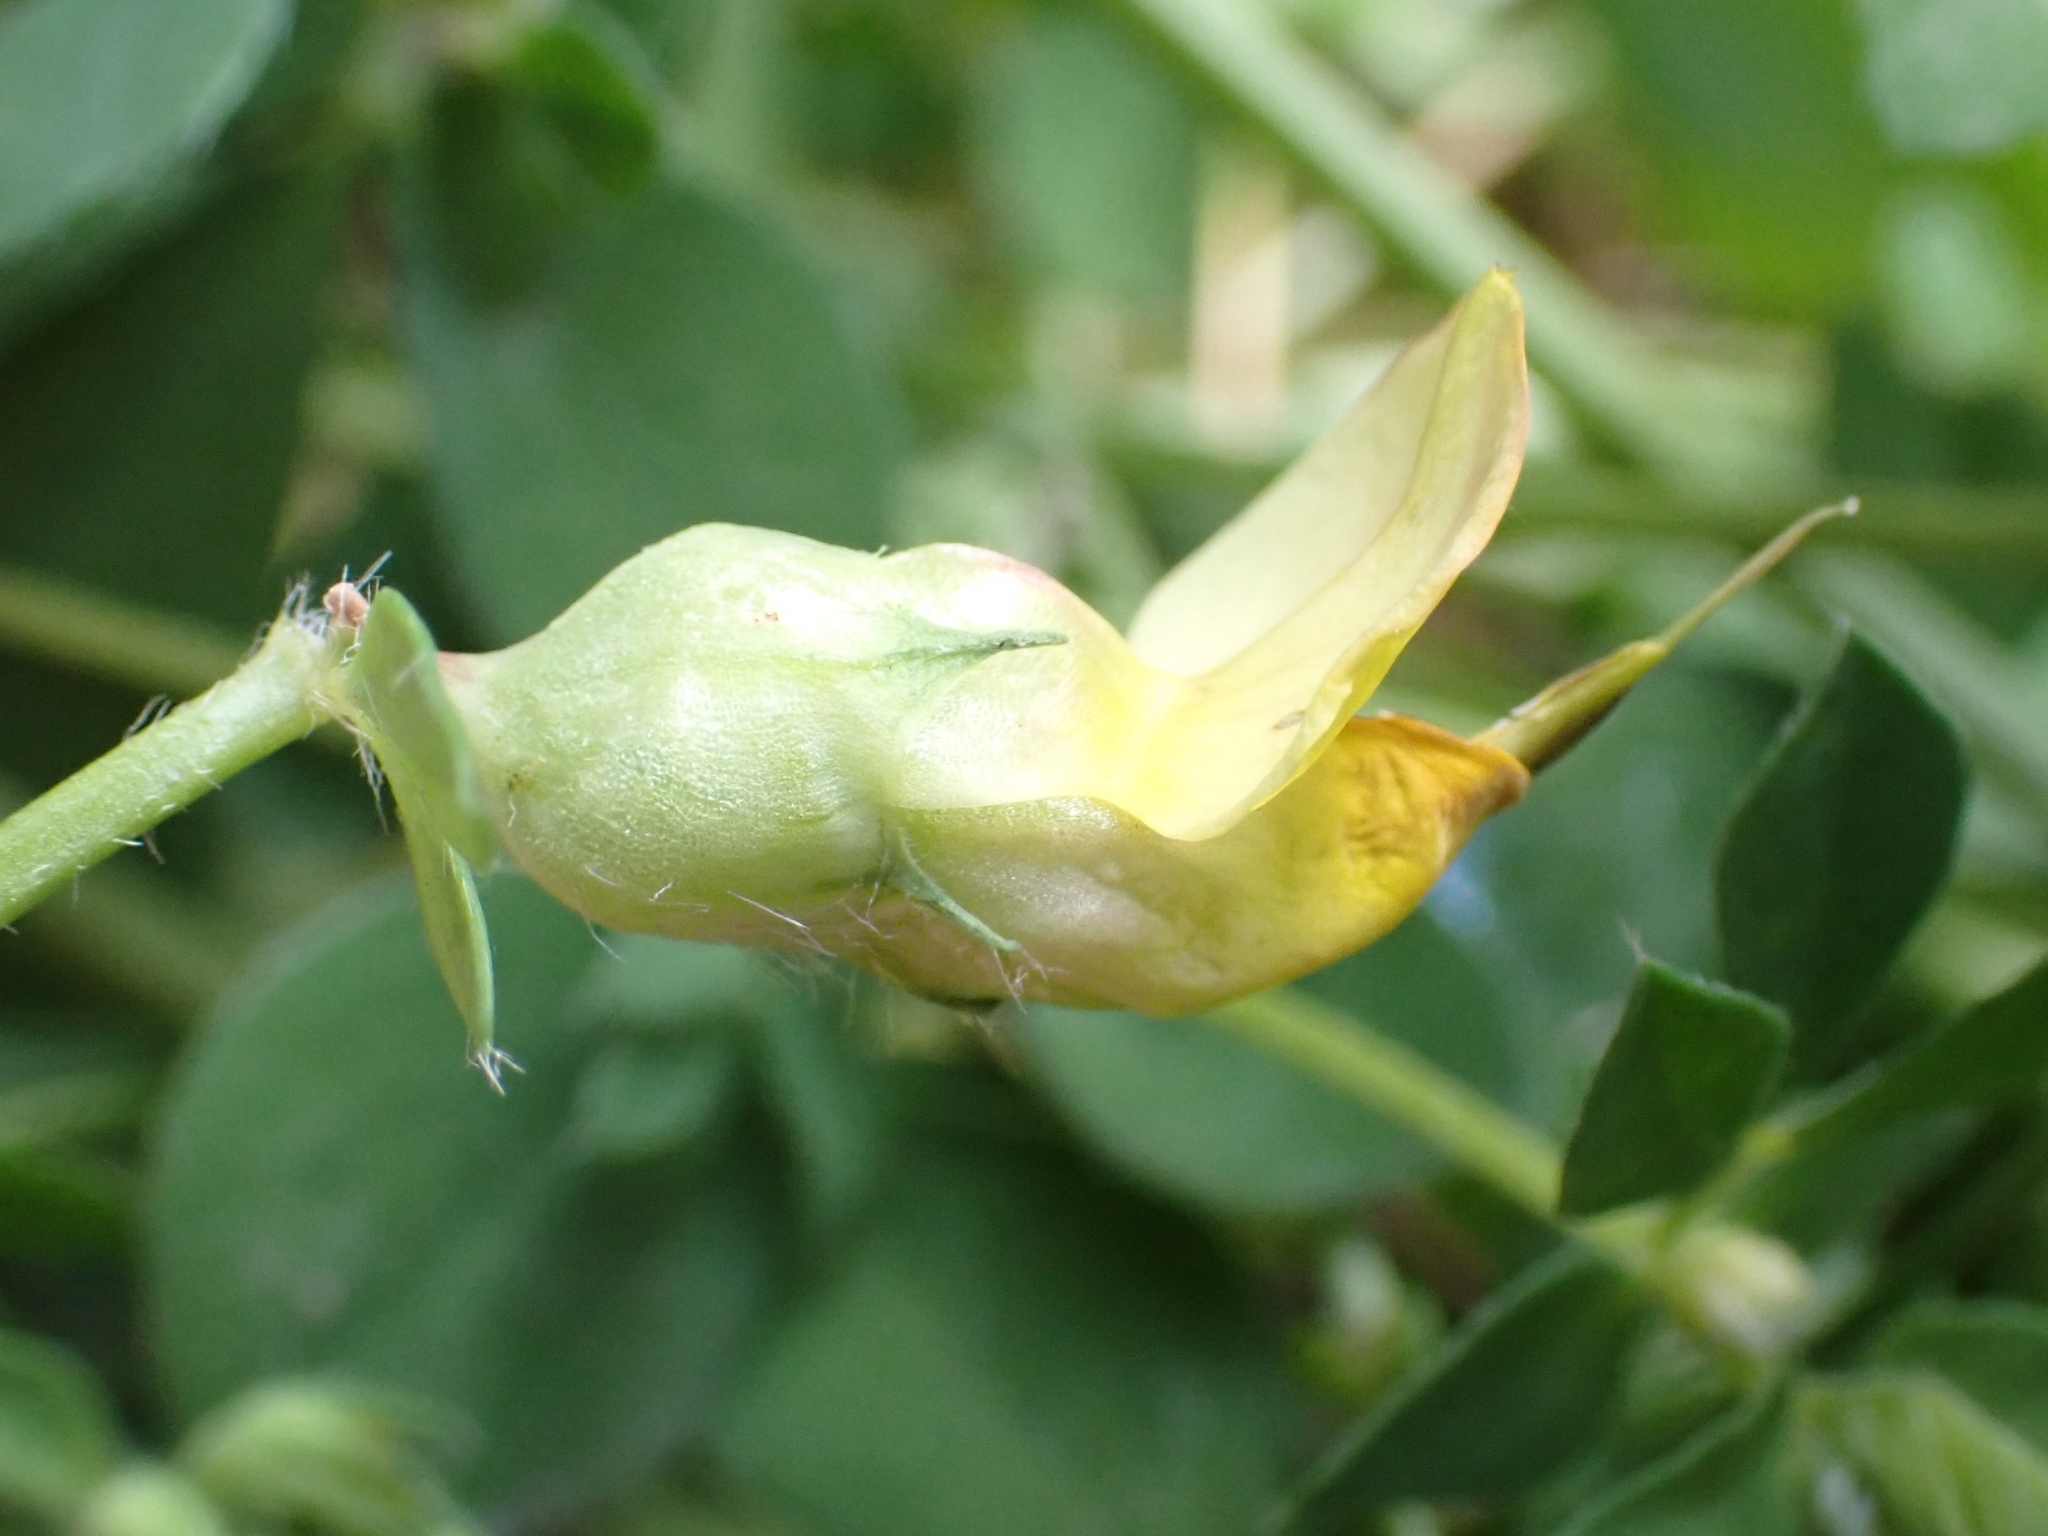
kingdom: Animalia
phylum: Arthropoda
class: Insecta
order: Diptera
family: Cecidomyiidae
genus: Contarinia
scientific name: Contarinia loti
